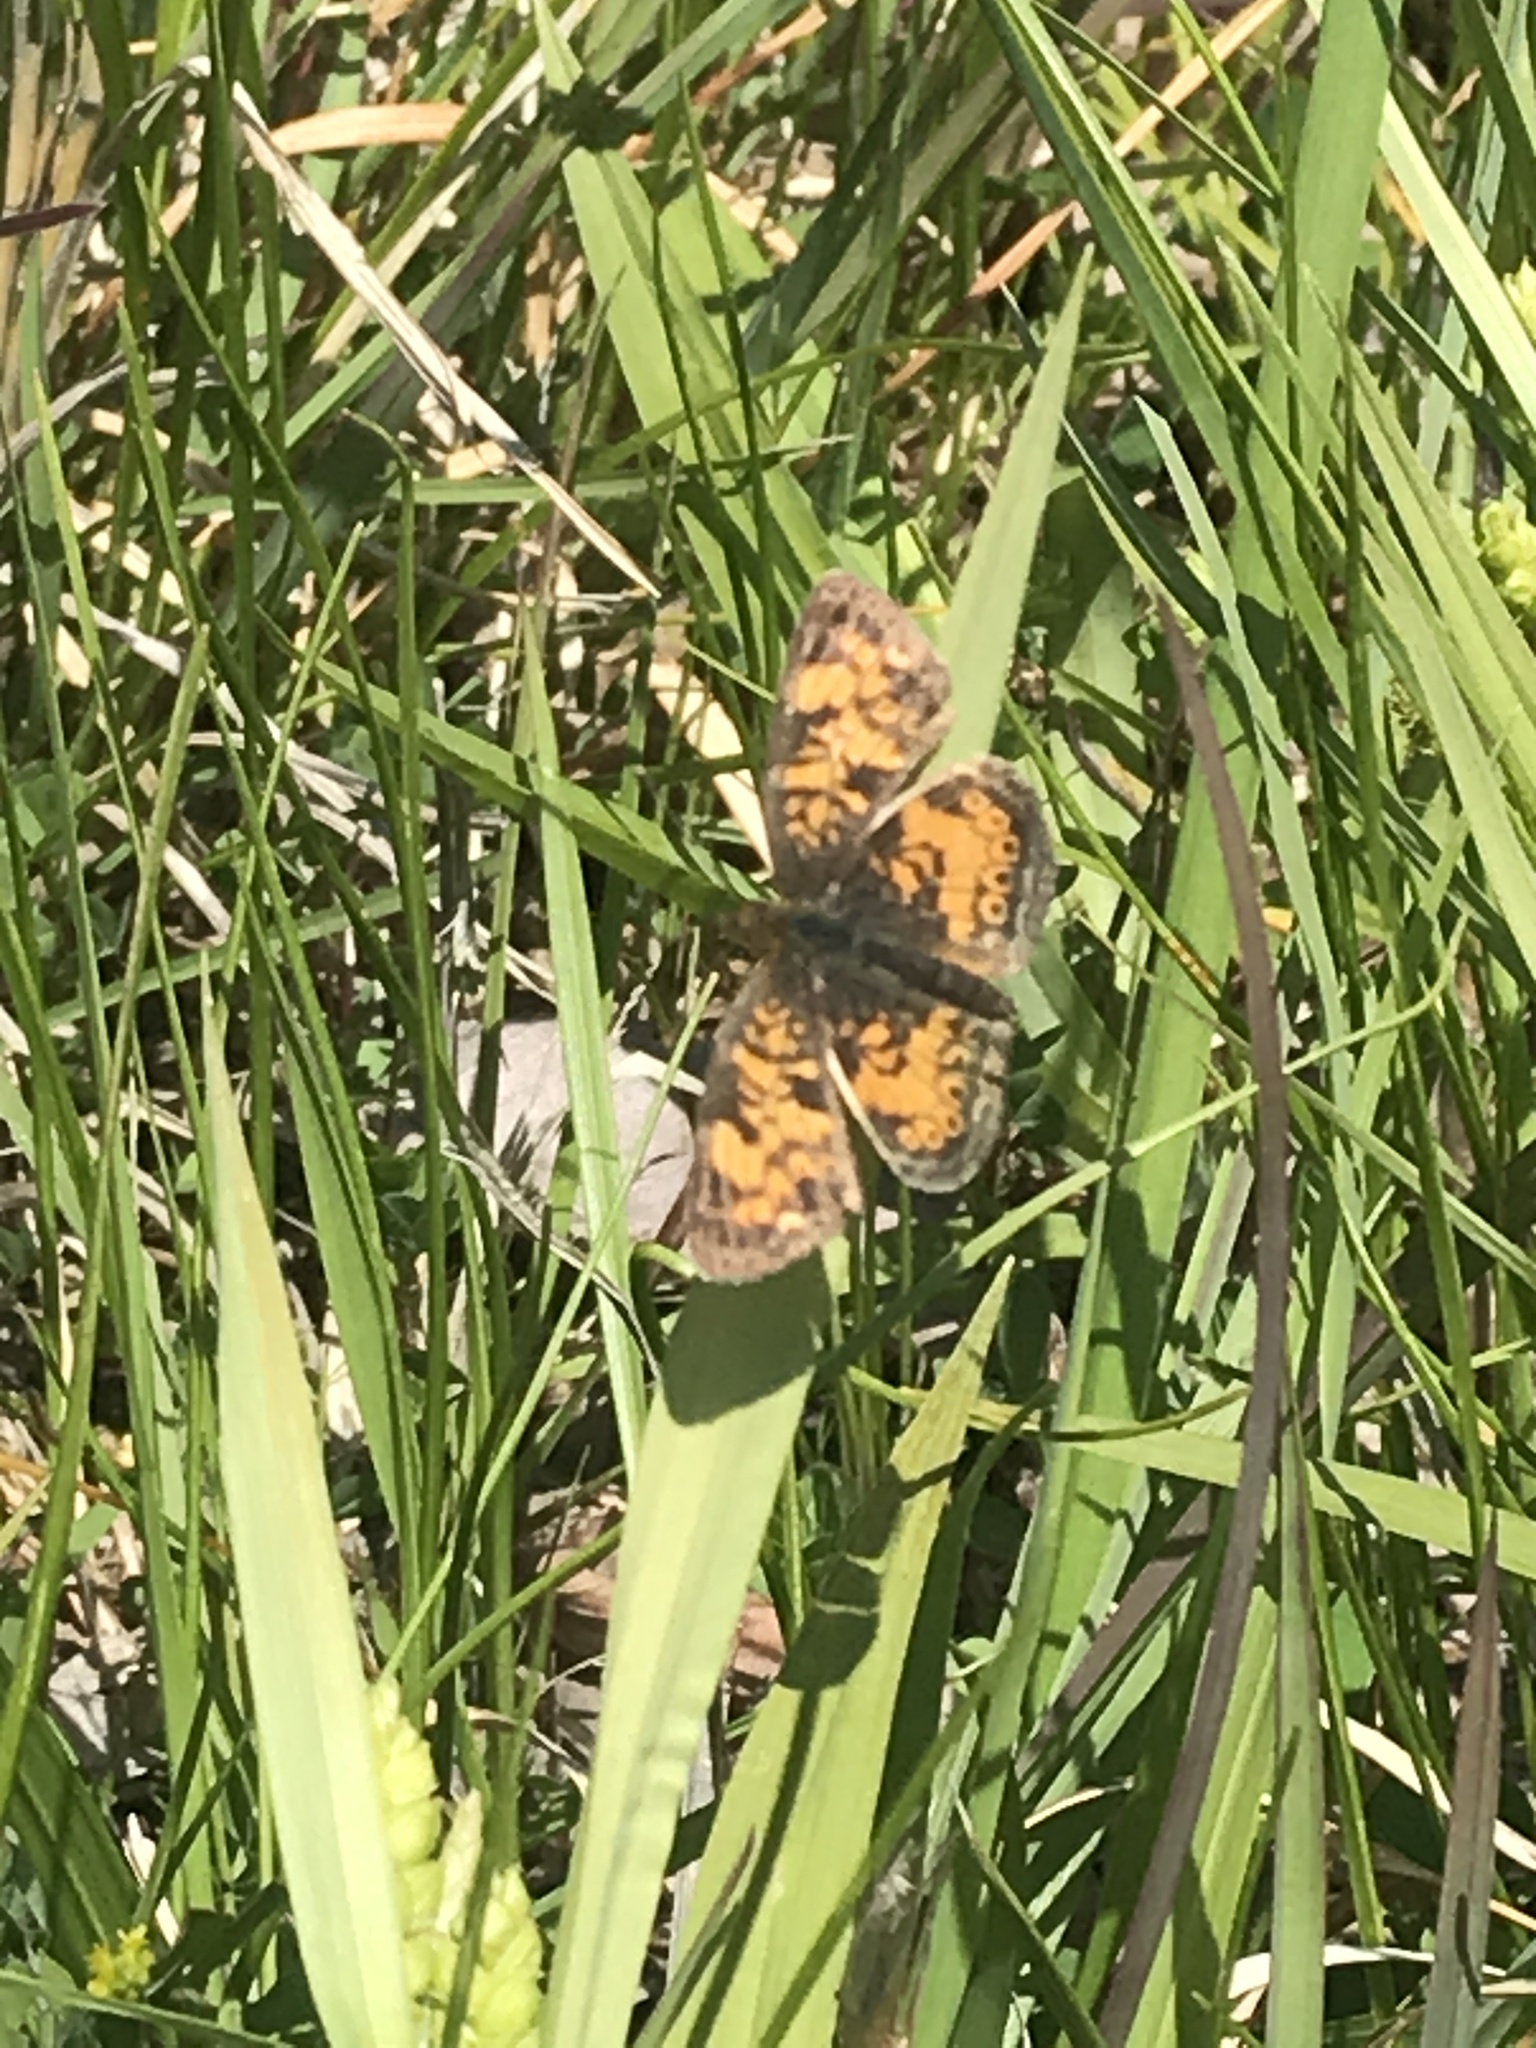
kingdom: Animalia
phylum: Arthropoda
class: Insecta
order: Lepidoptera
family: Nymphalidae
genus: Phyciodes
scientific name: Phyciodes tharos
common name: Pearl crescent
